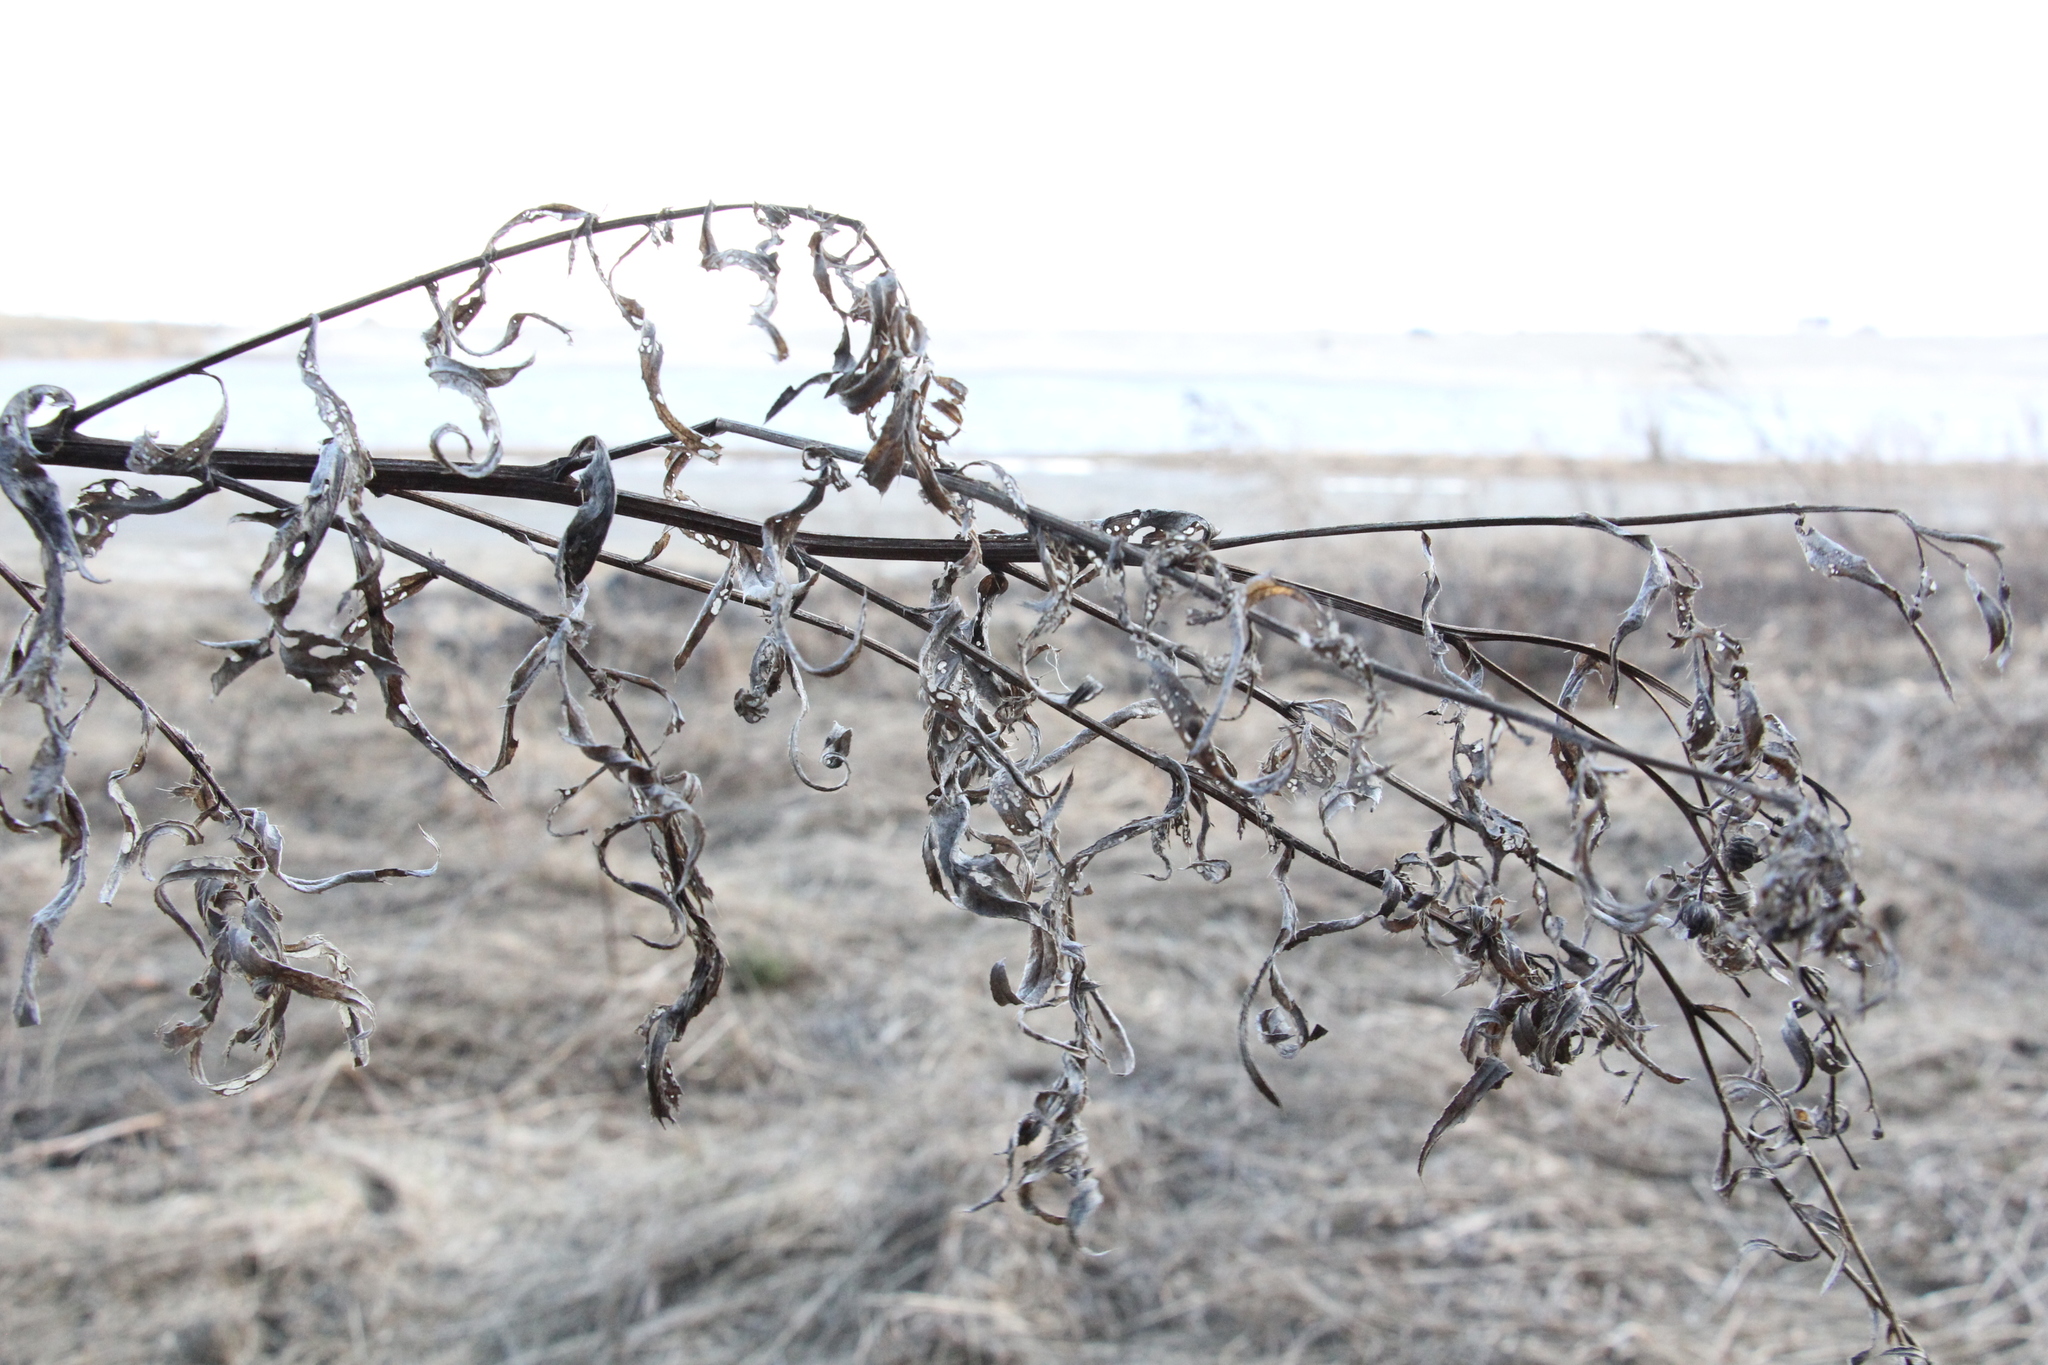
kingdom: Plantae
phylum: Tracheophyta
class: Magnoliopsida
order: Asterales
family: Asteraceae
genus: Cirsium
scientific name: Cirsium arvense
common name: Creeping thistle
